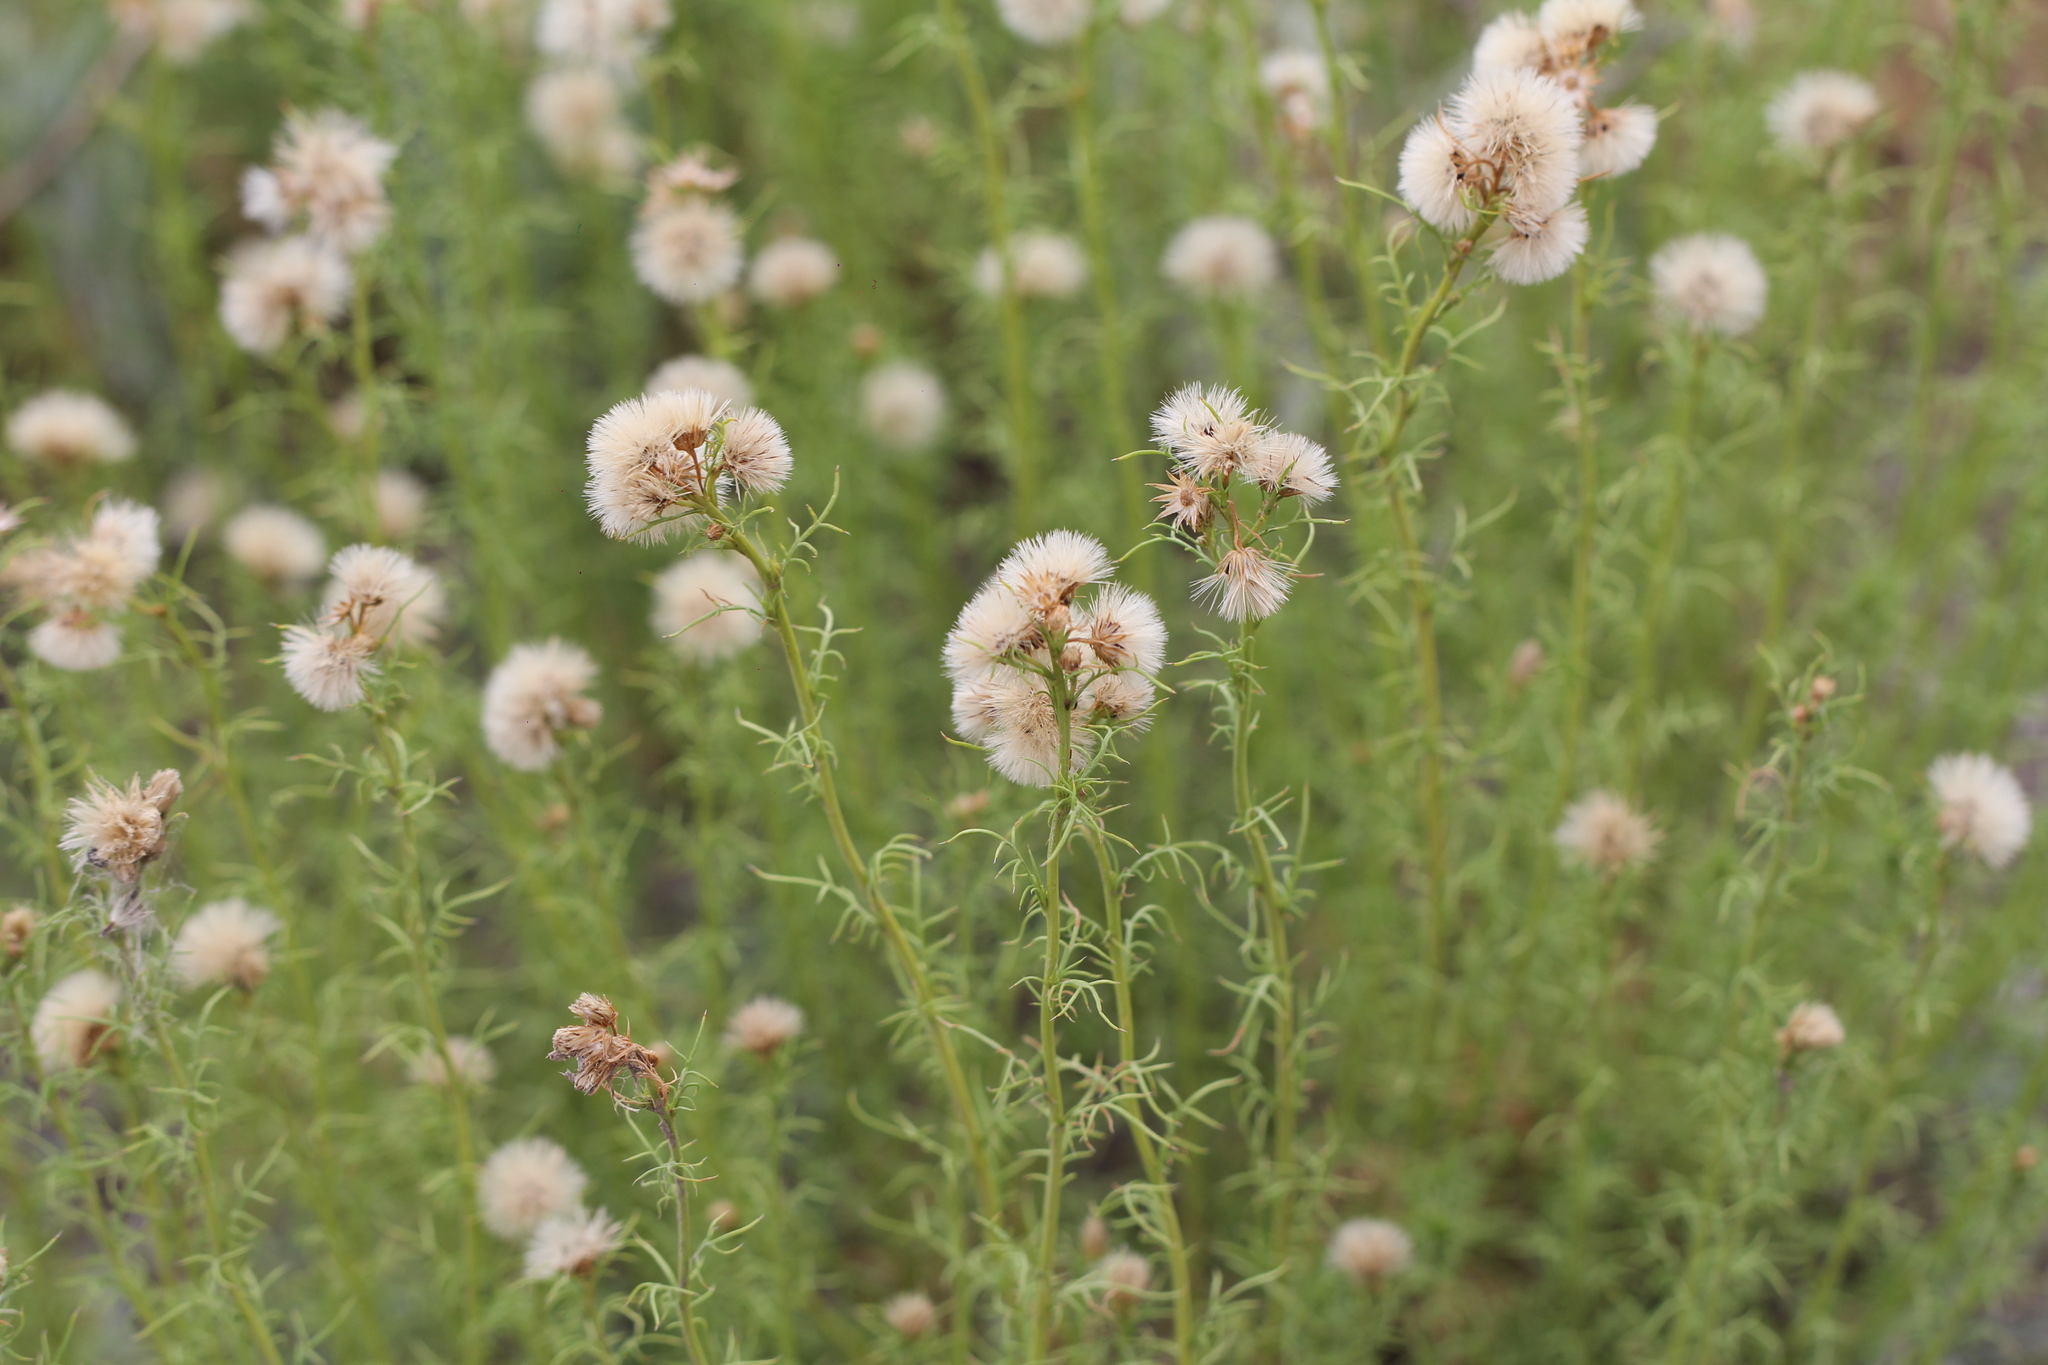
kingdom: Plantae
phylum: Tracheophyta
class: Magnoliopsida
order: Asterales
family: Asteraceae
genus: Baccharis
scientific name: Baccharis ulicina
